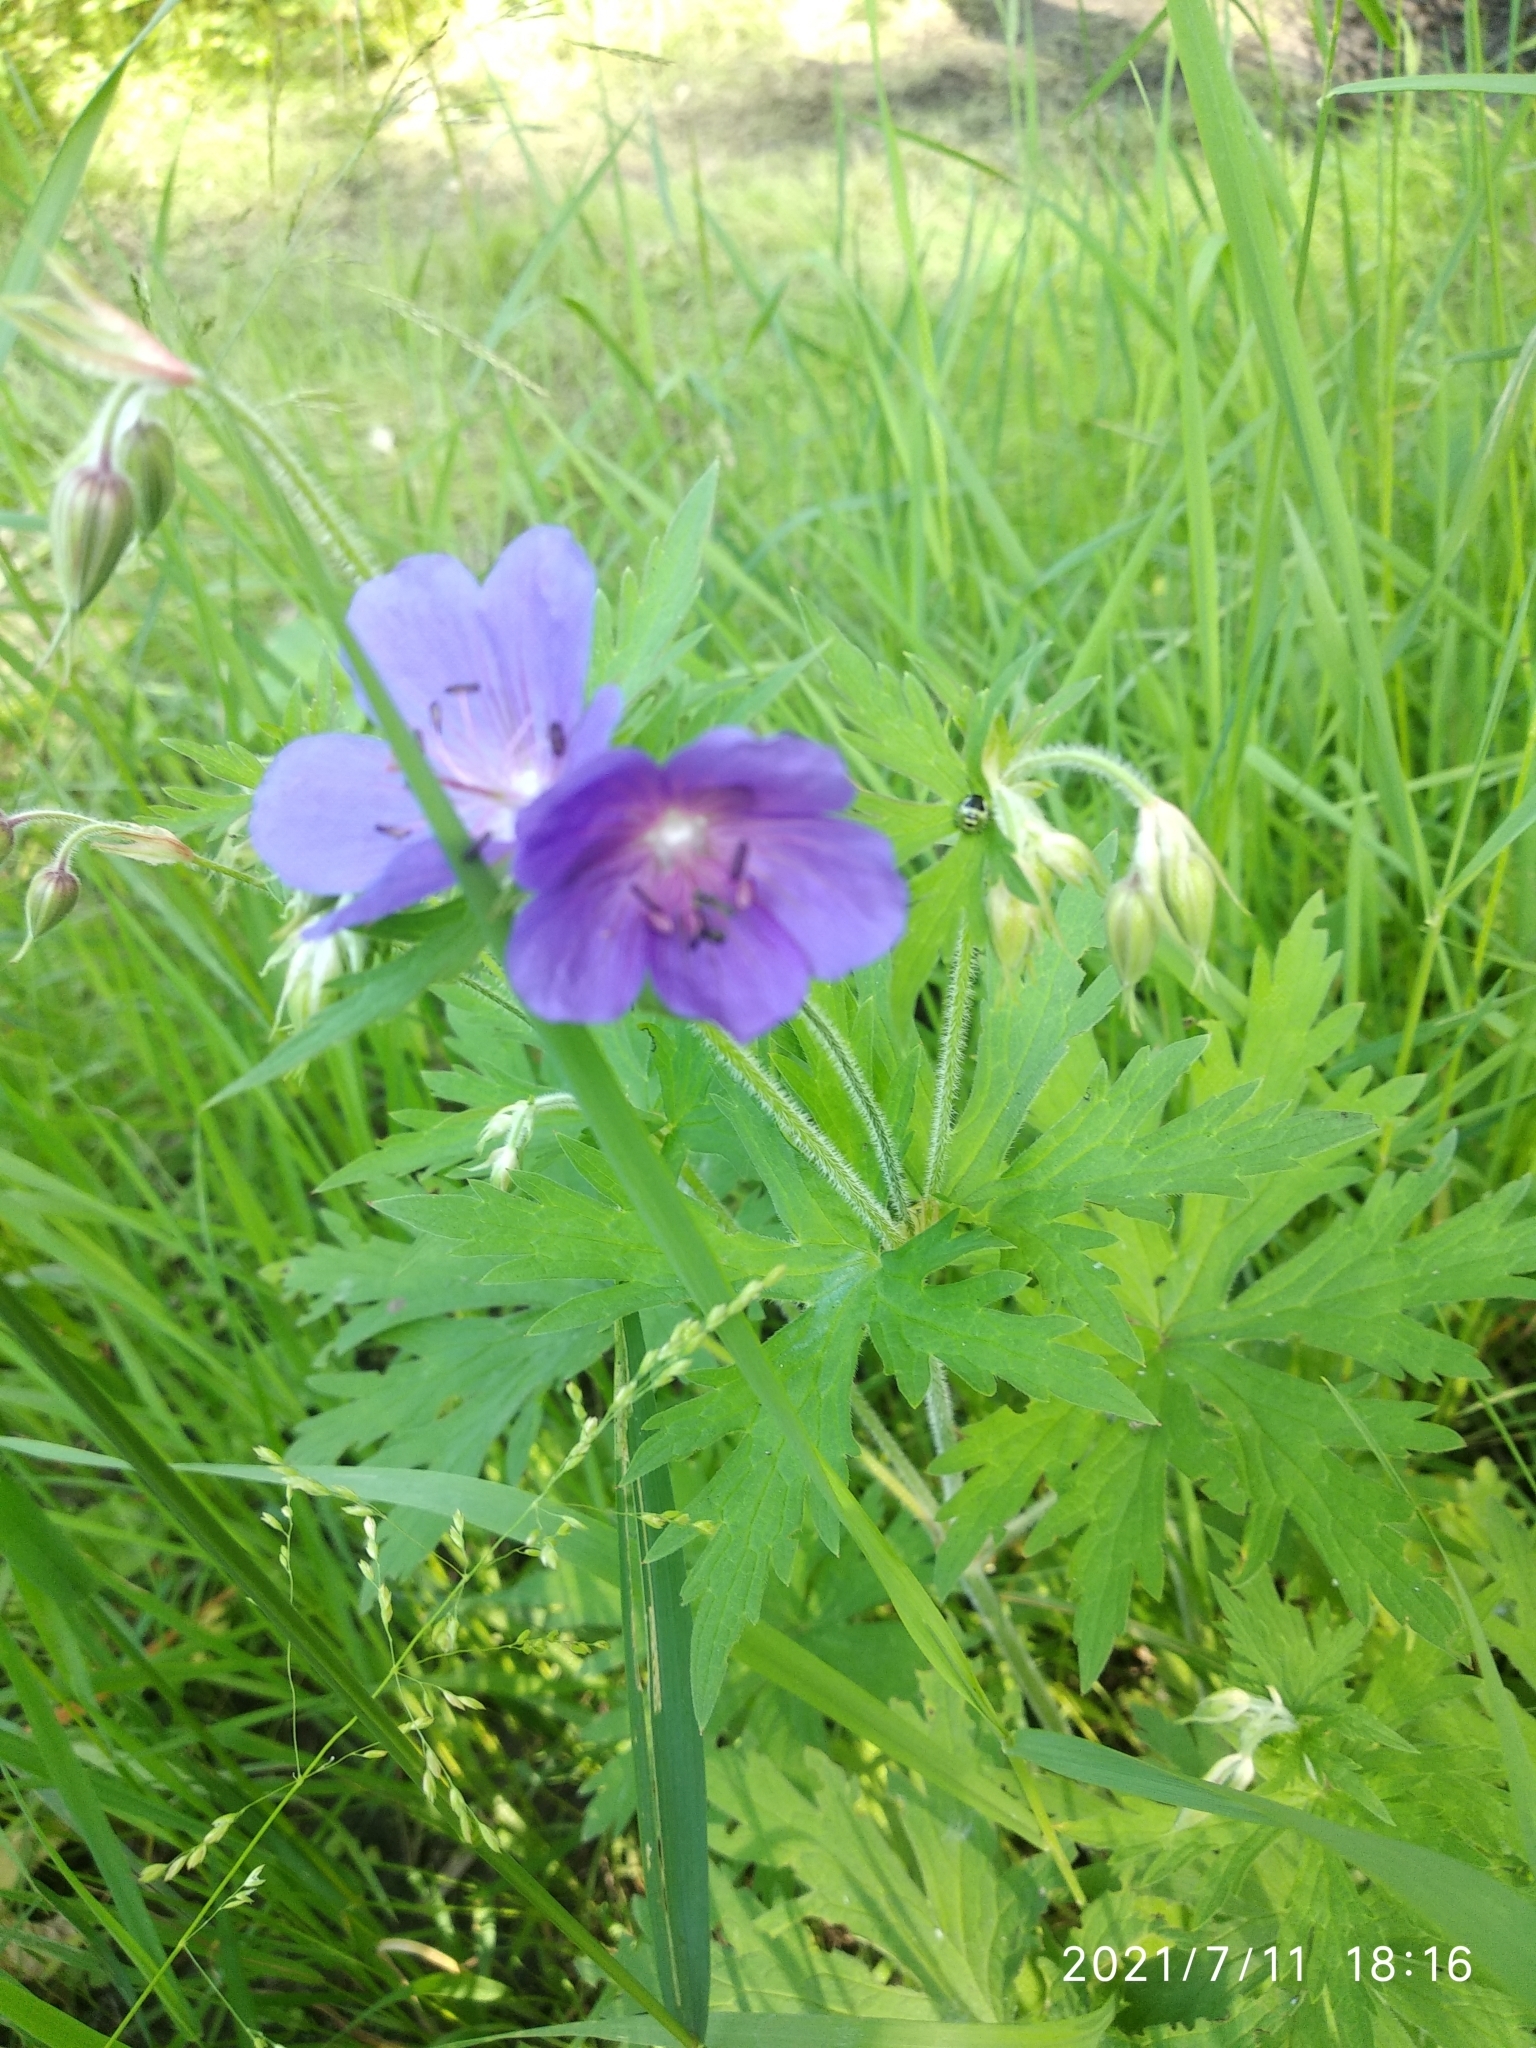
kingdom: Plantae
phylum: Tracheophyta
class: Magnoliopsida
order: Geraniales
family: Geraniaceae
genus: Geranium
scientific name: Geranium pratense
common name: Meadow crane's-bill
